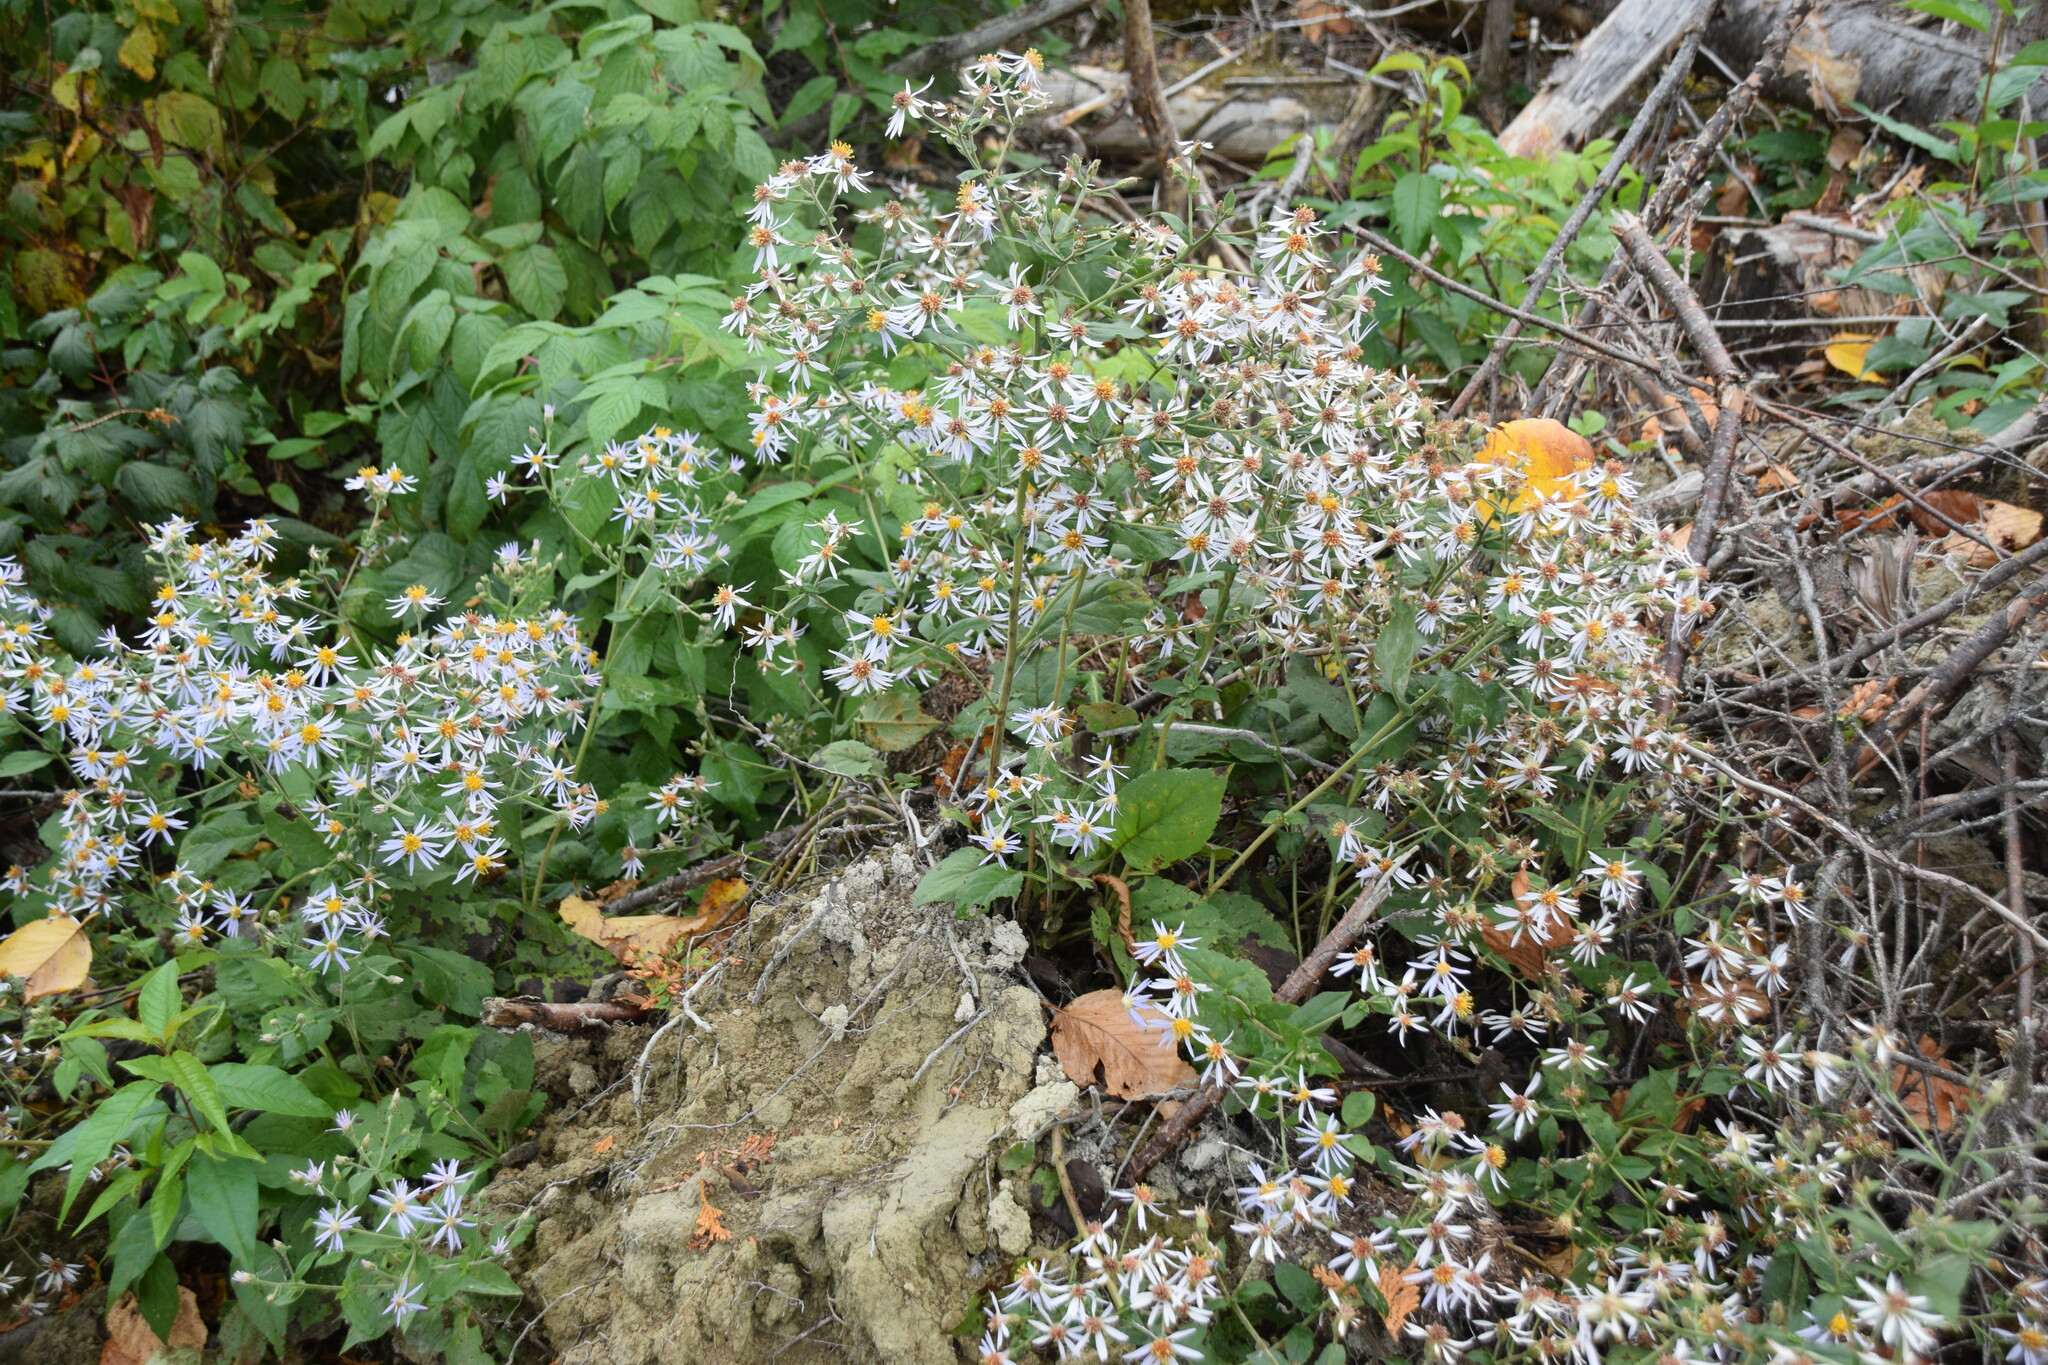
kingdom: Plantae
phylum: Tracheophyta
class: Magnoliopsida
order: Asterales
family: Asteraceae
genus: Eurybia
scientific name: Eurybia macrophylla
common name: Big-leaved aster
